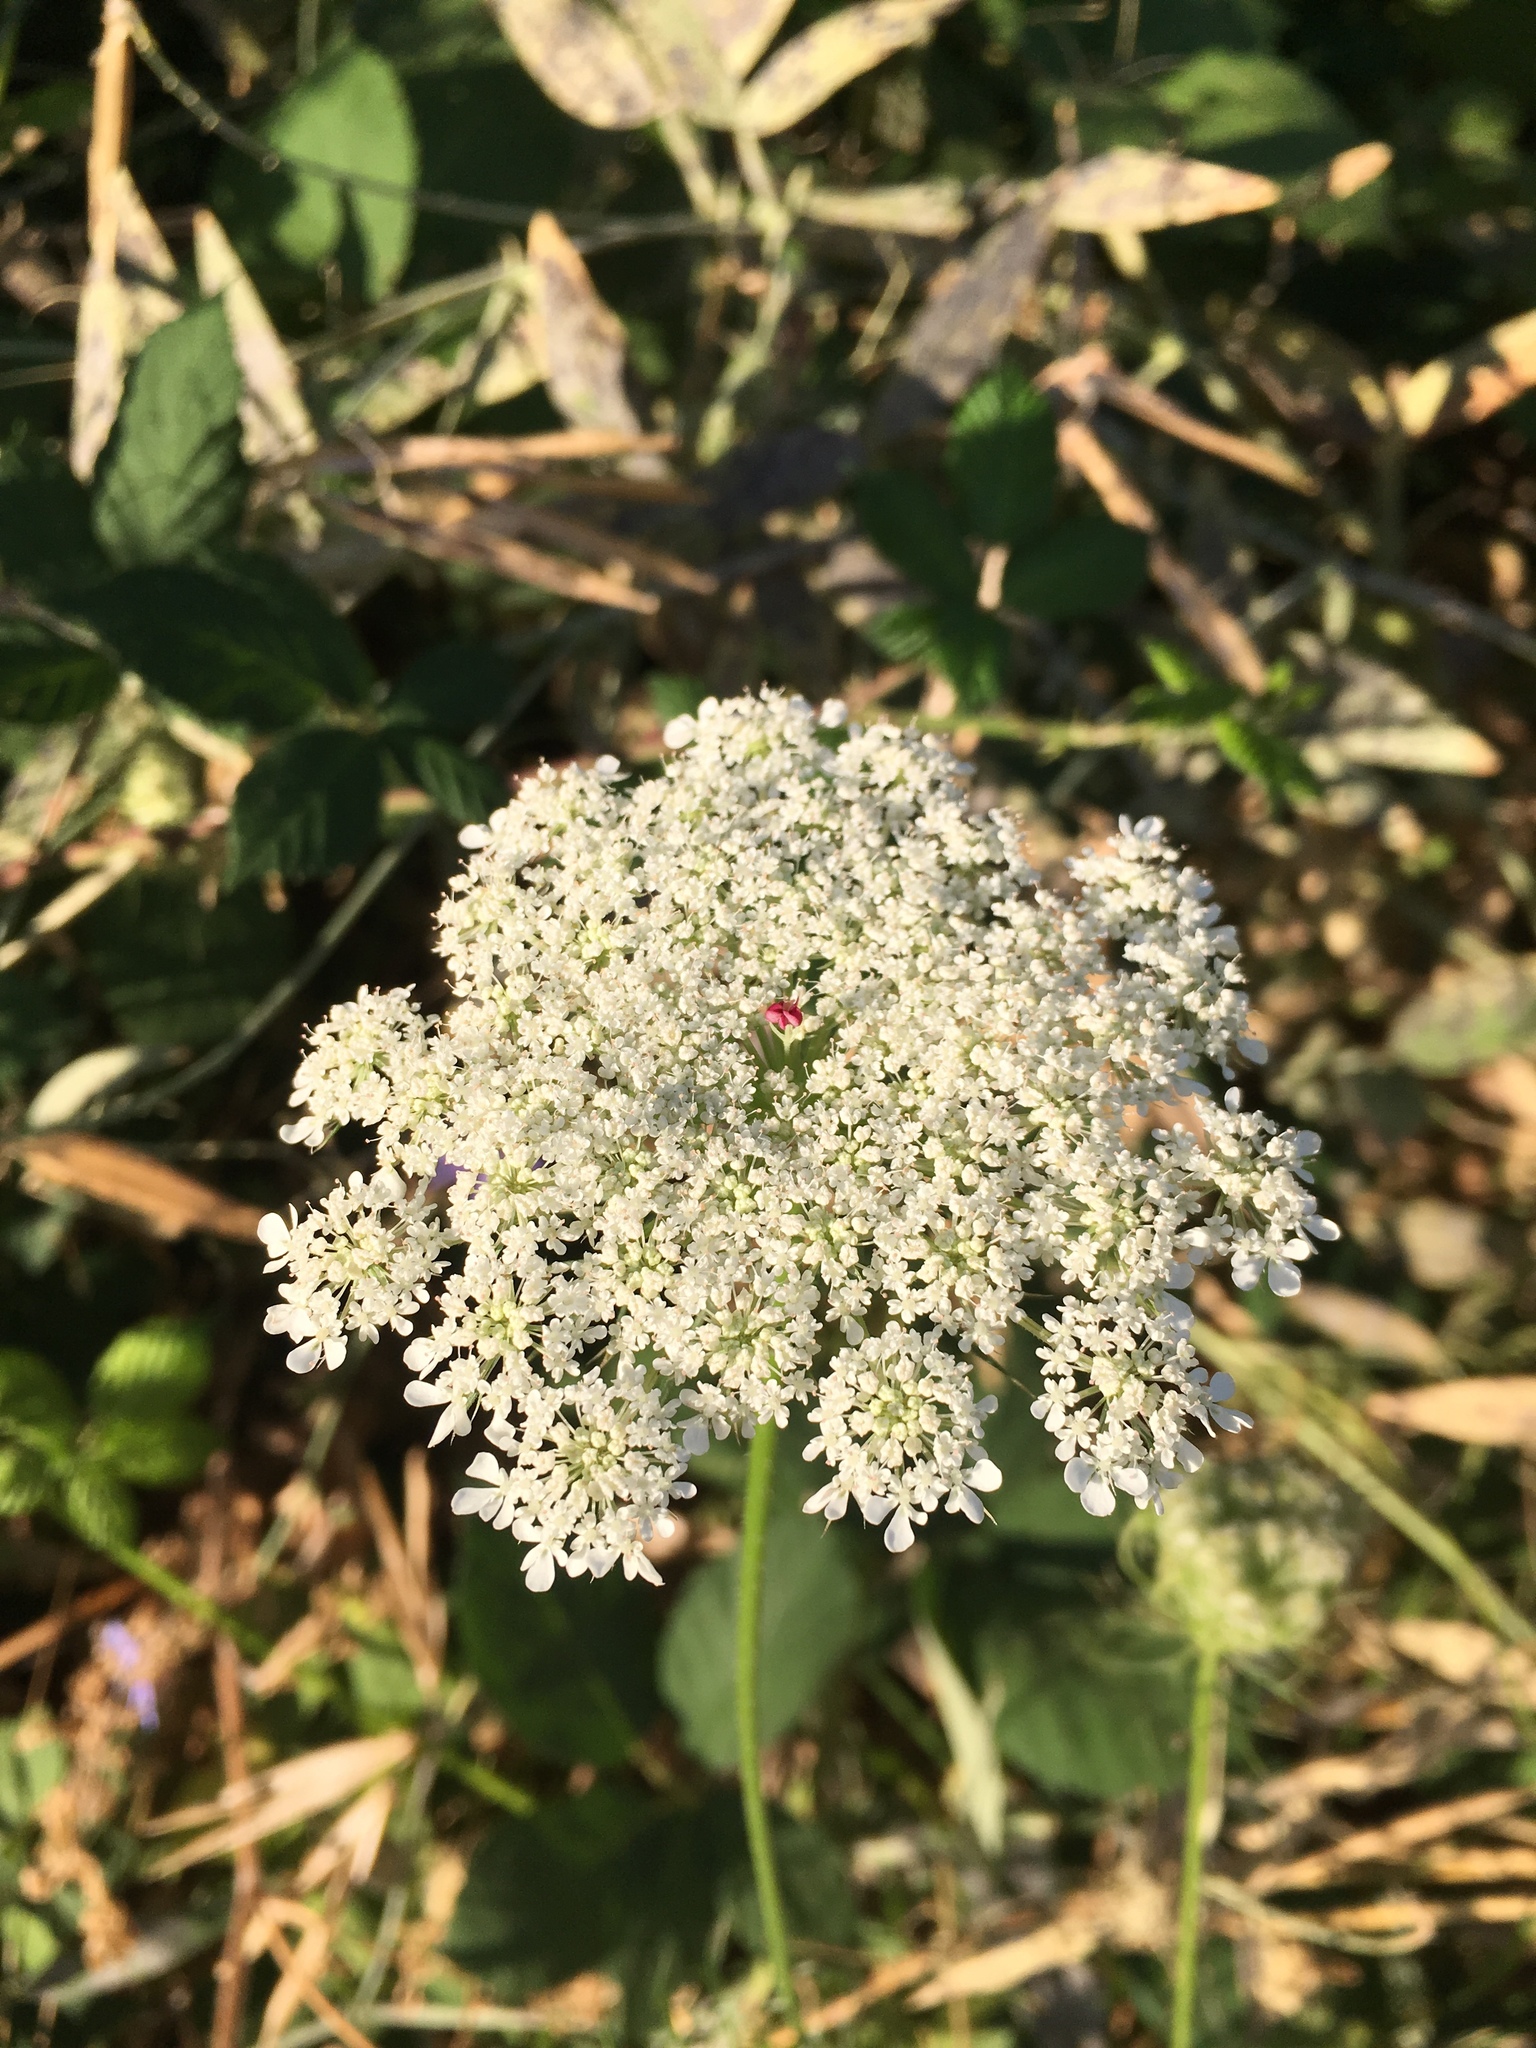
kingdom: Plantae
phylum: Tracheophyta
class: Magnoliopsida
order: Apiales
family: Apiaceae
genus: Daucus
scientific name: Daucus carota
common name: Wild carrot
